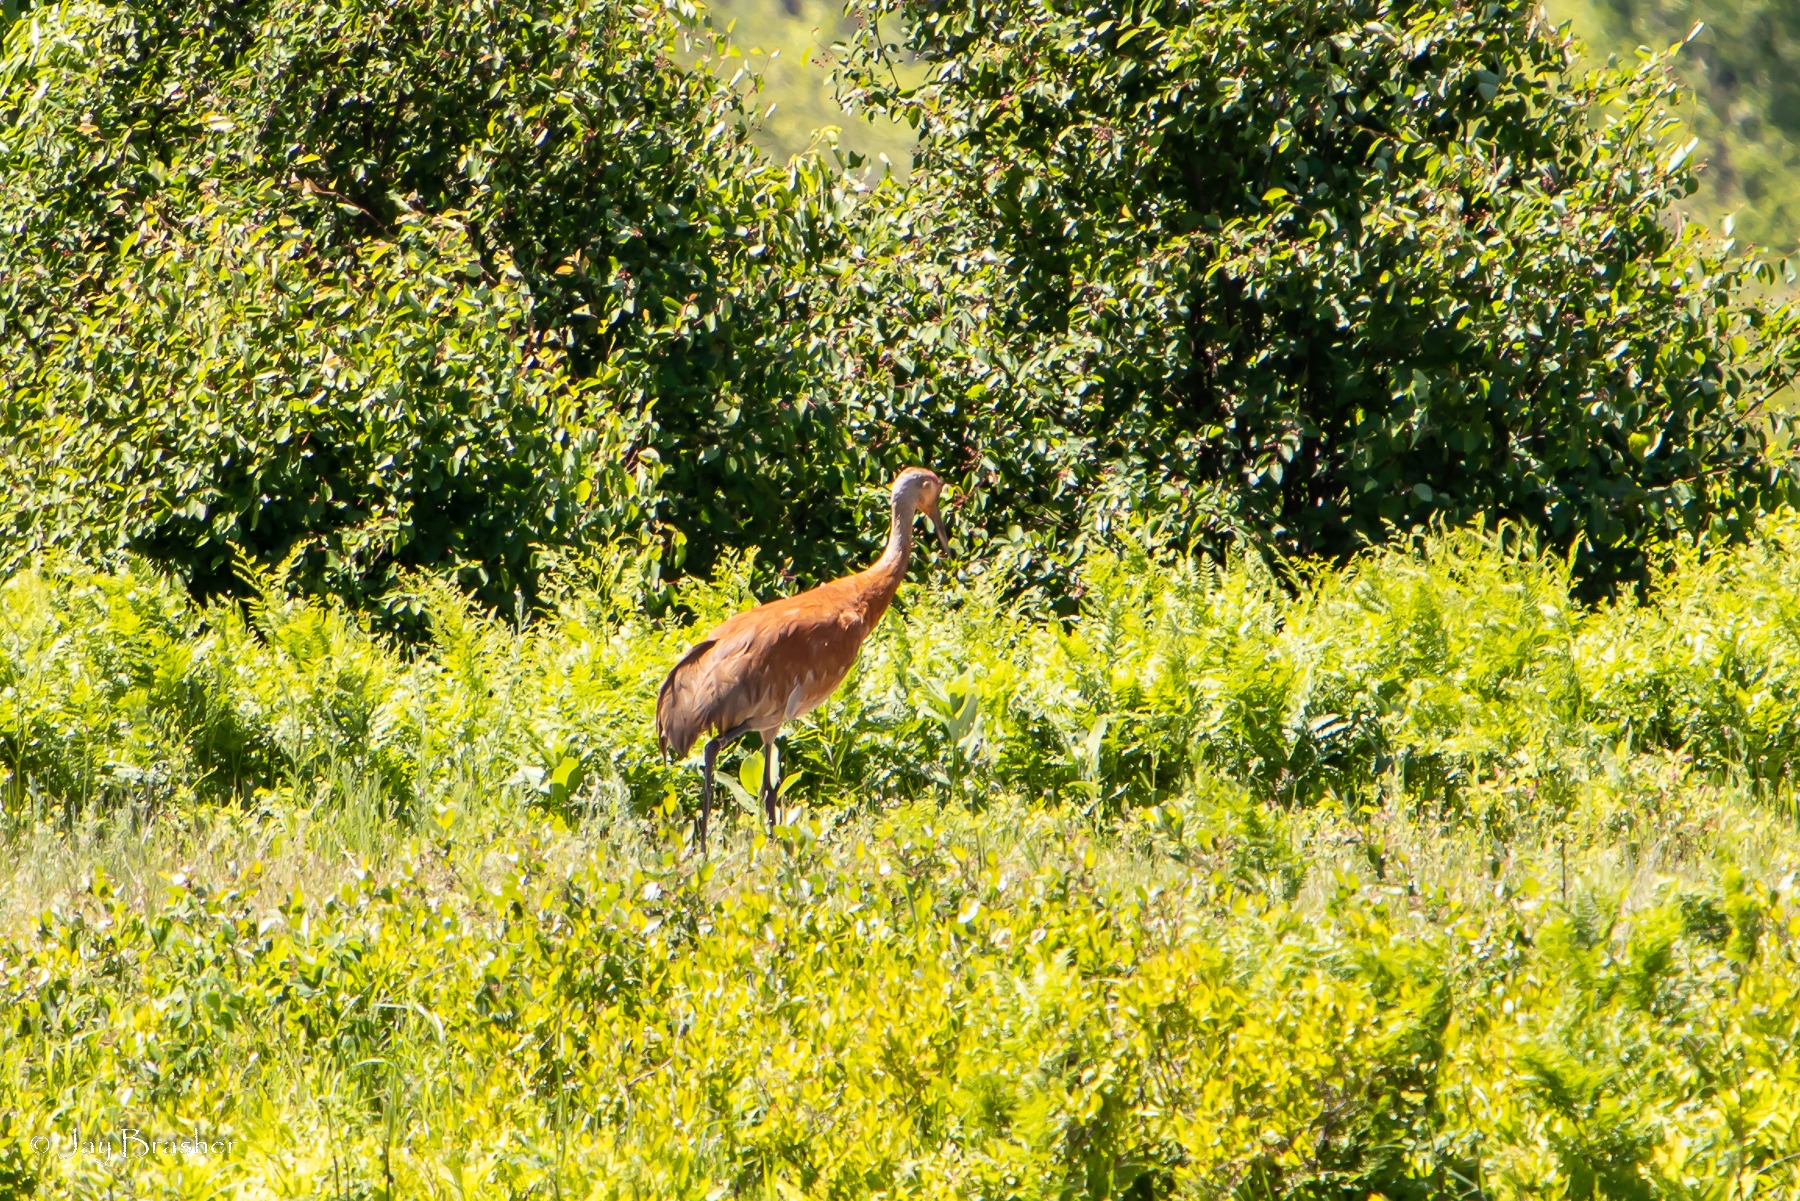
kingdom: Animalia
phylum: Chordata
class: Aves
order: Gruiformes
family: Gruidae
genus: Grus
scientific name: Grus canadensis
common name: Sandhill crane
